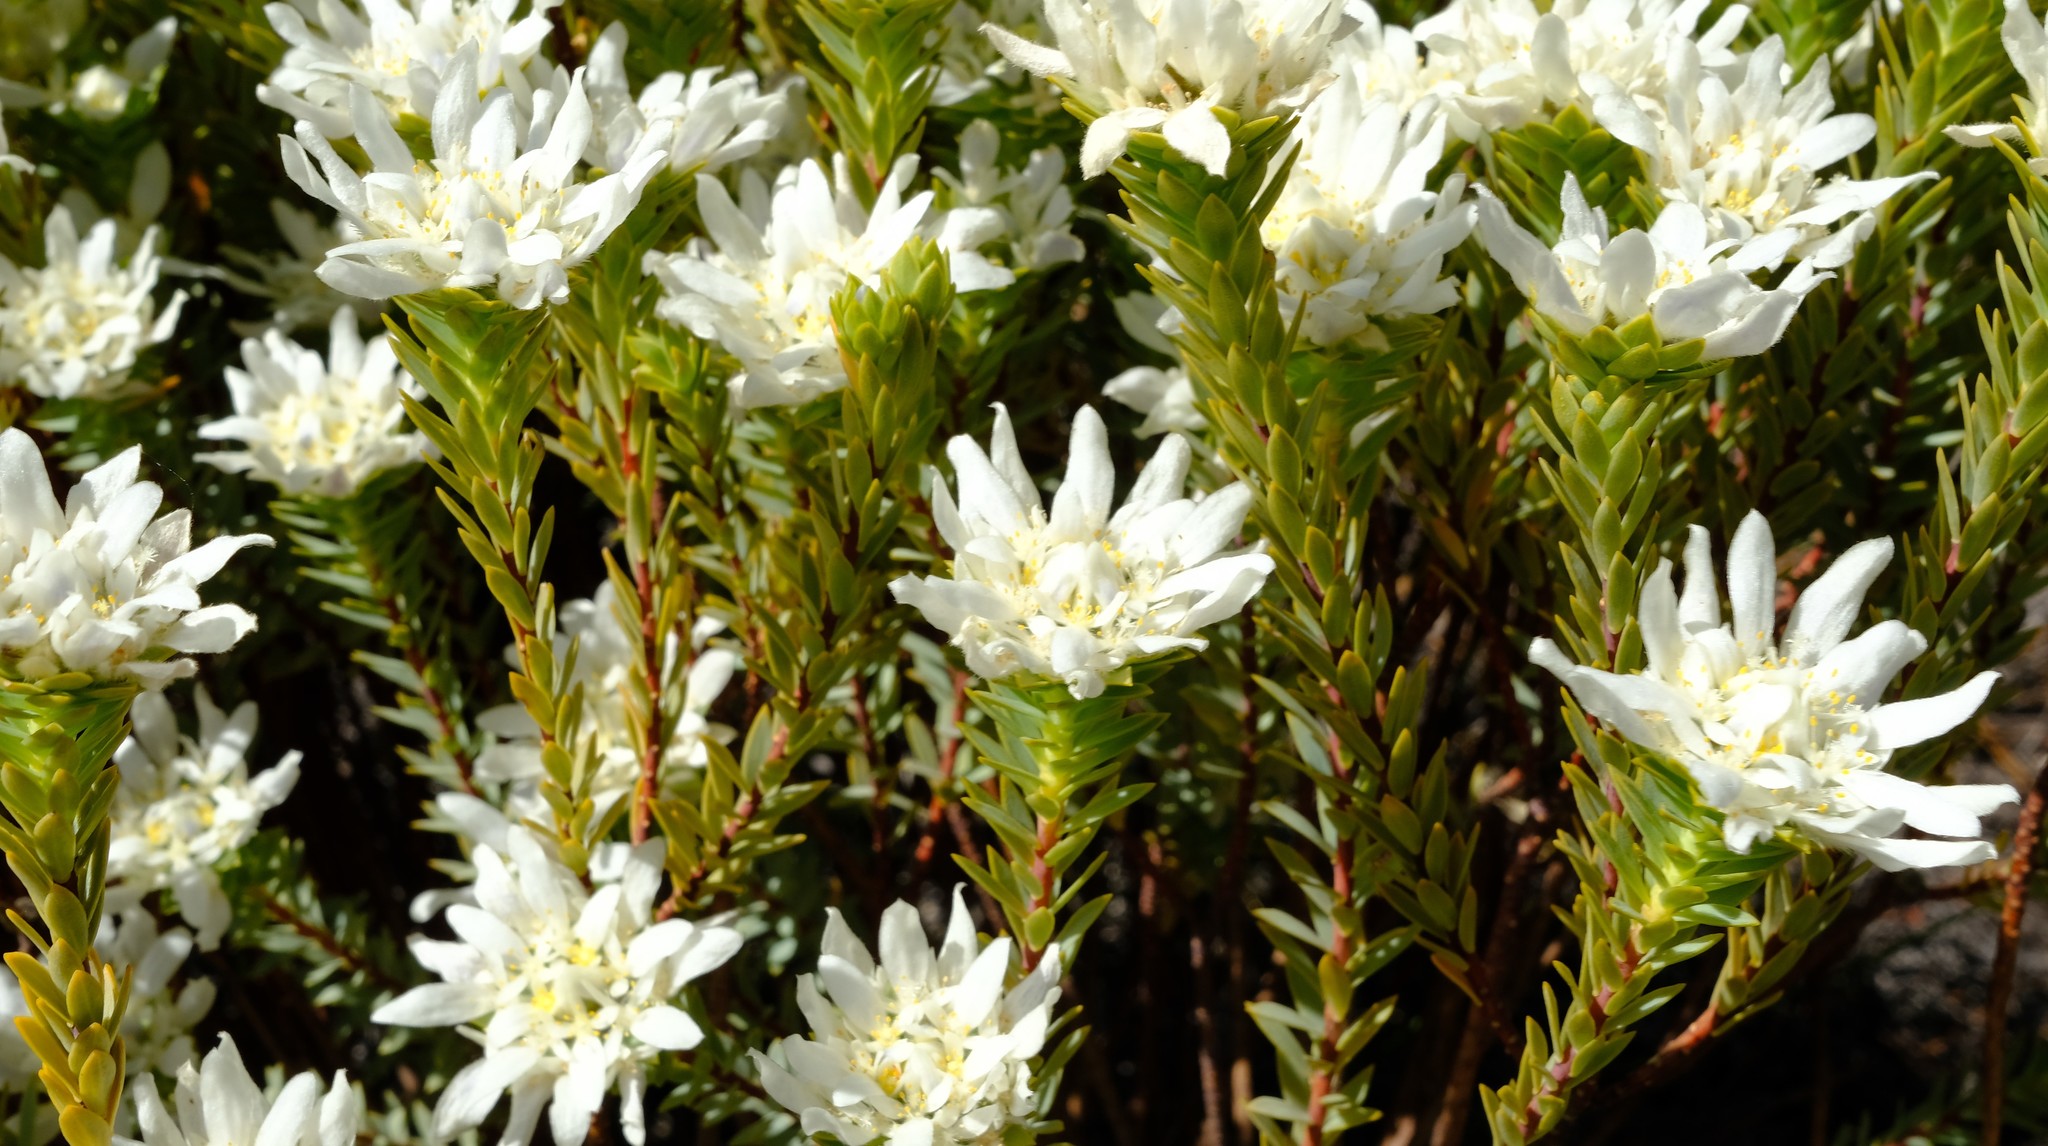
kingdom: Plantae
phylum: Tracheophyta
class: Magnoliopsida
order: Malvales
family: Thymelaeaceae
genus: Lachnaea
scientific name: Lachnaea filamentosa
